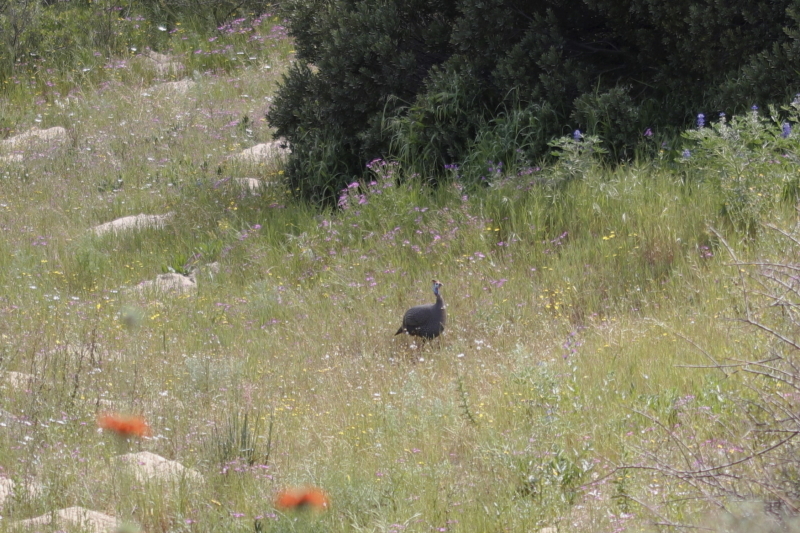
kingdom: Animalia
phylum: Chordata
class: Aves
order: Galliformes
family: Numididae
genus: Numida
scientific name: Numida meleagris
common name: Helmeted guineafowl
